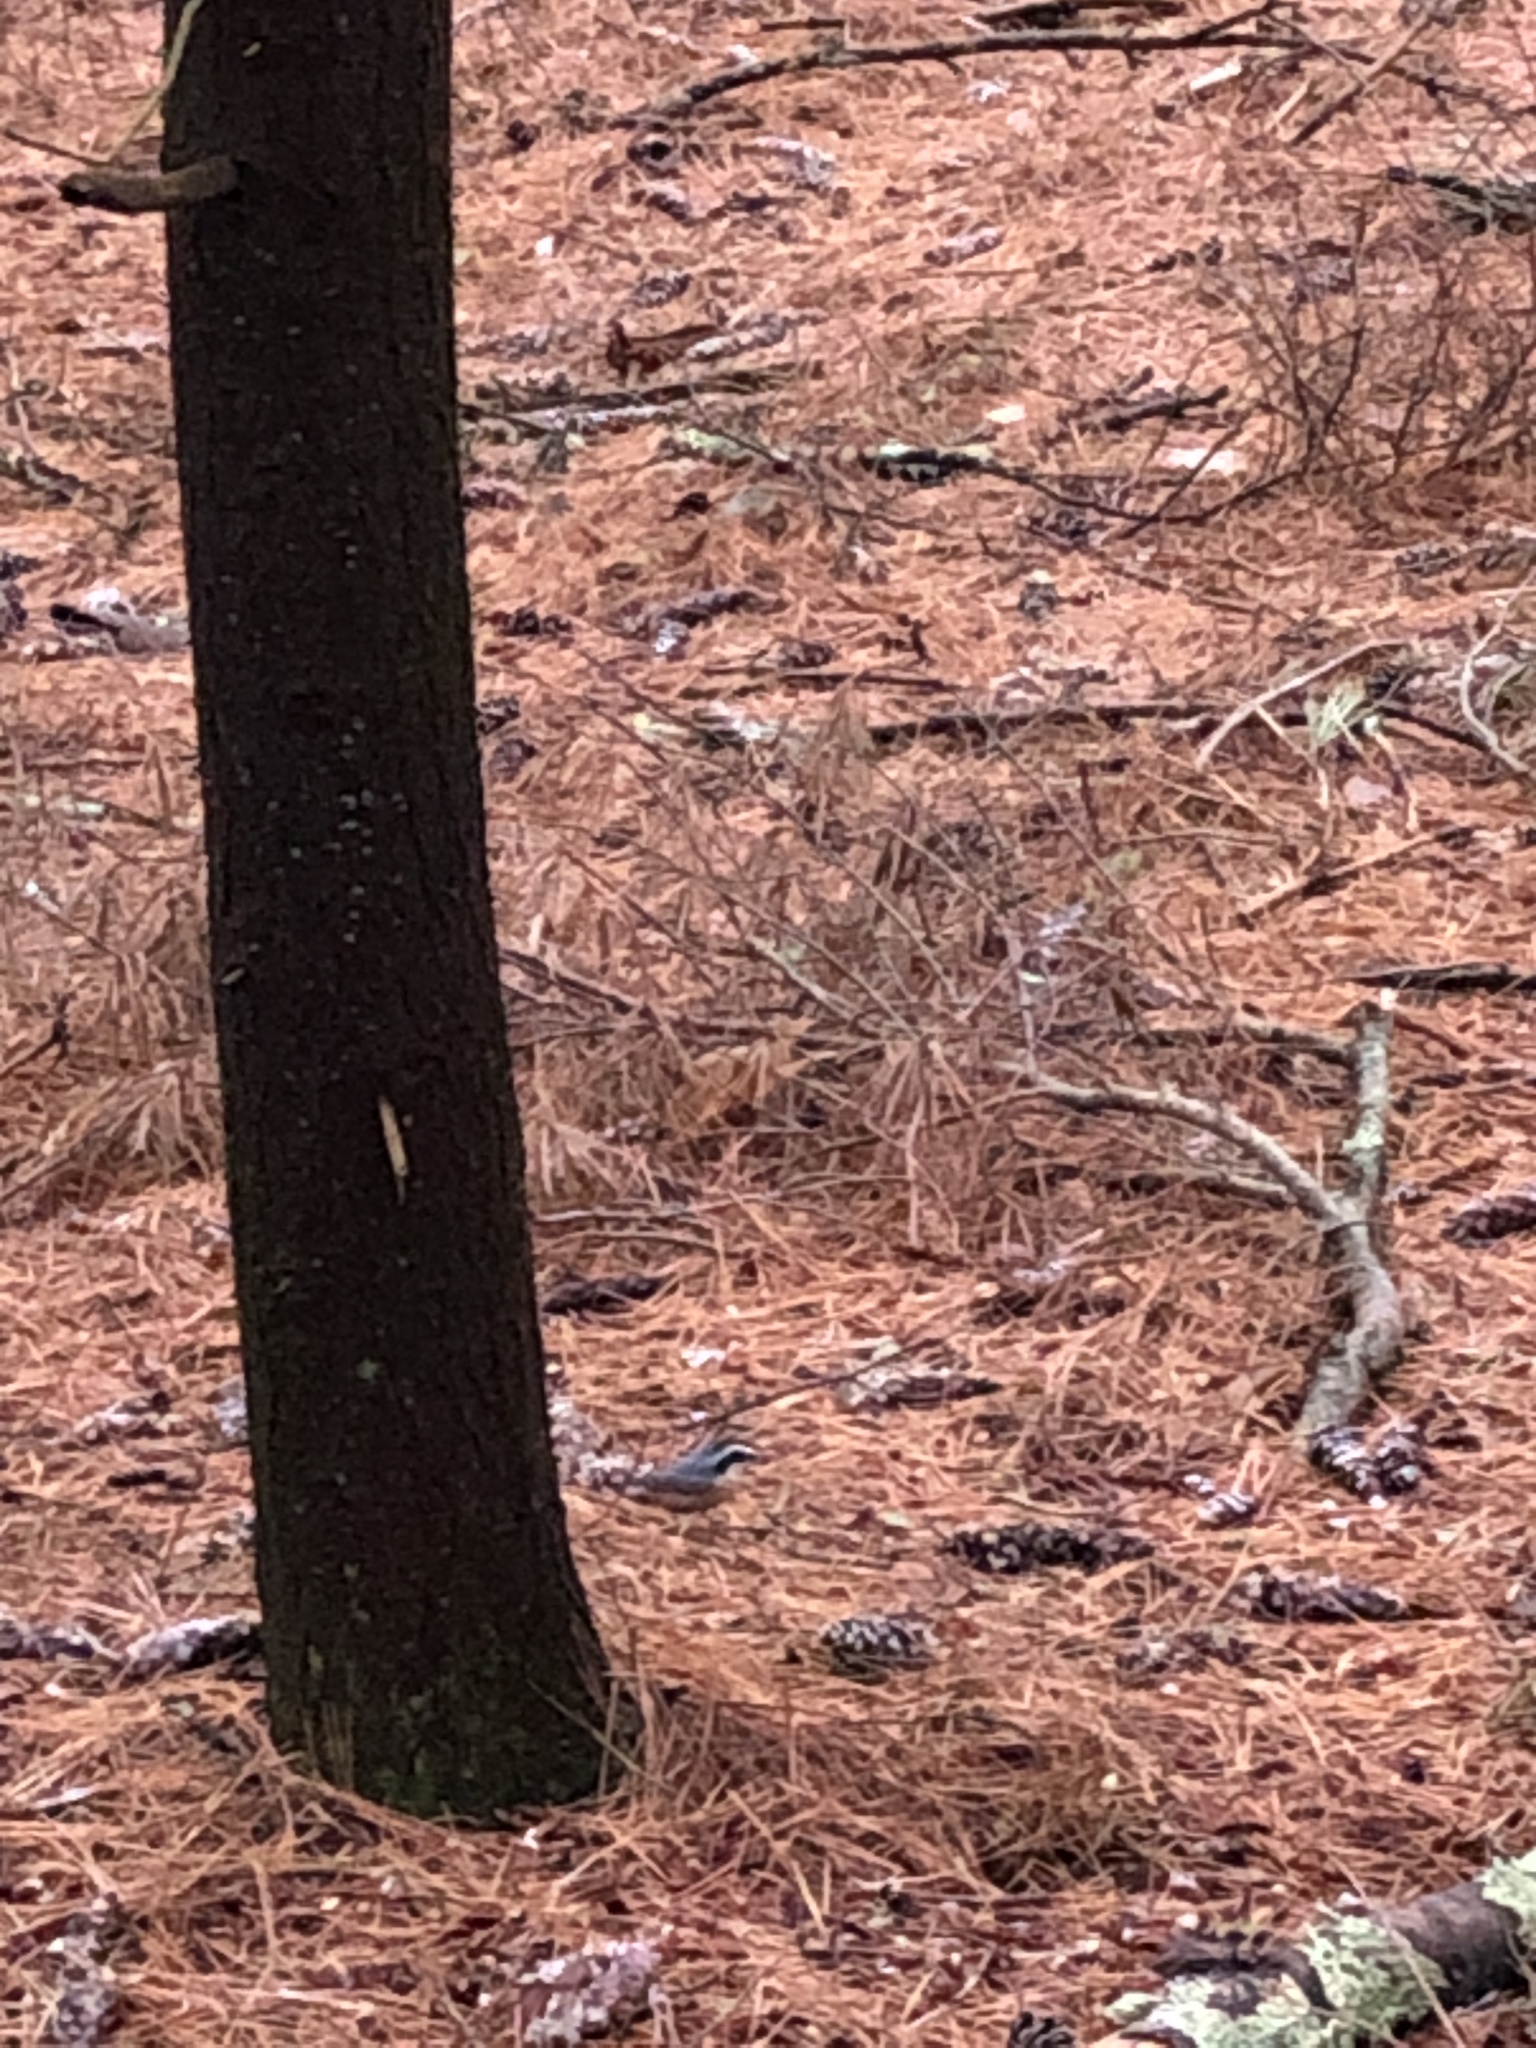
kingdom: Animalia
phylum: Chordata
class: Aves
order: Passeriformes
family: Sittidae
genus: Sitta
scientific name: Sitta canadensis
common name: Red-breasted nuthatch
